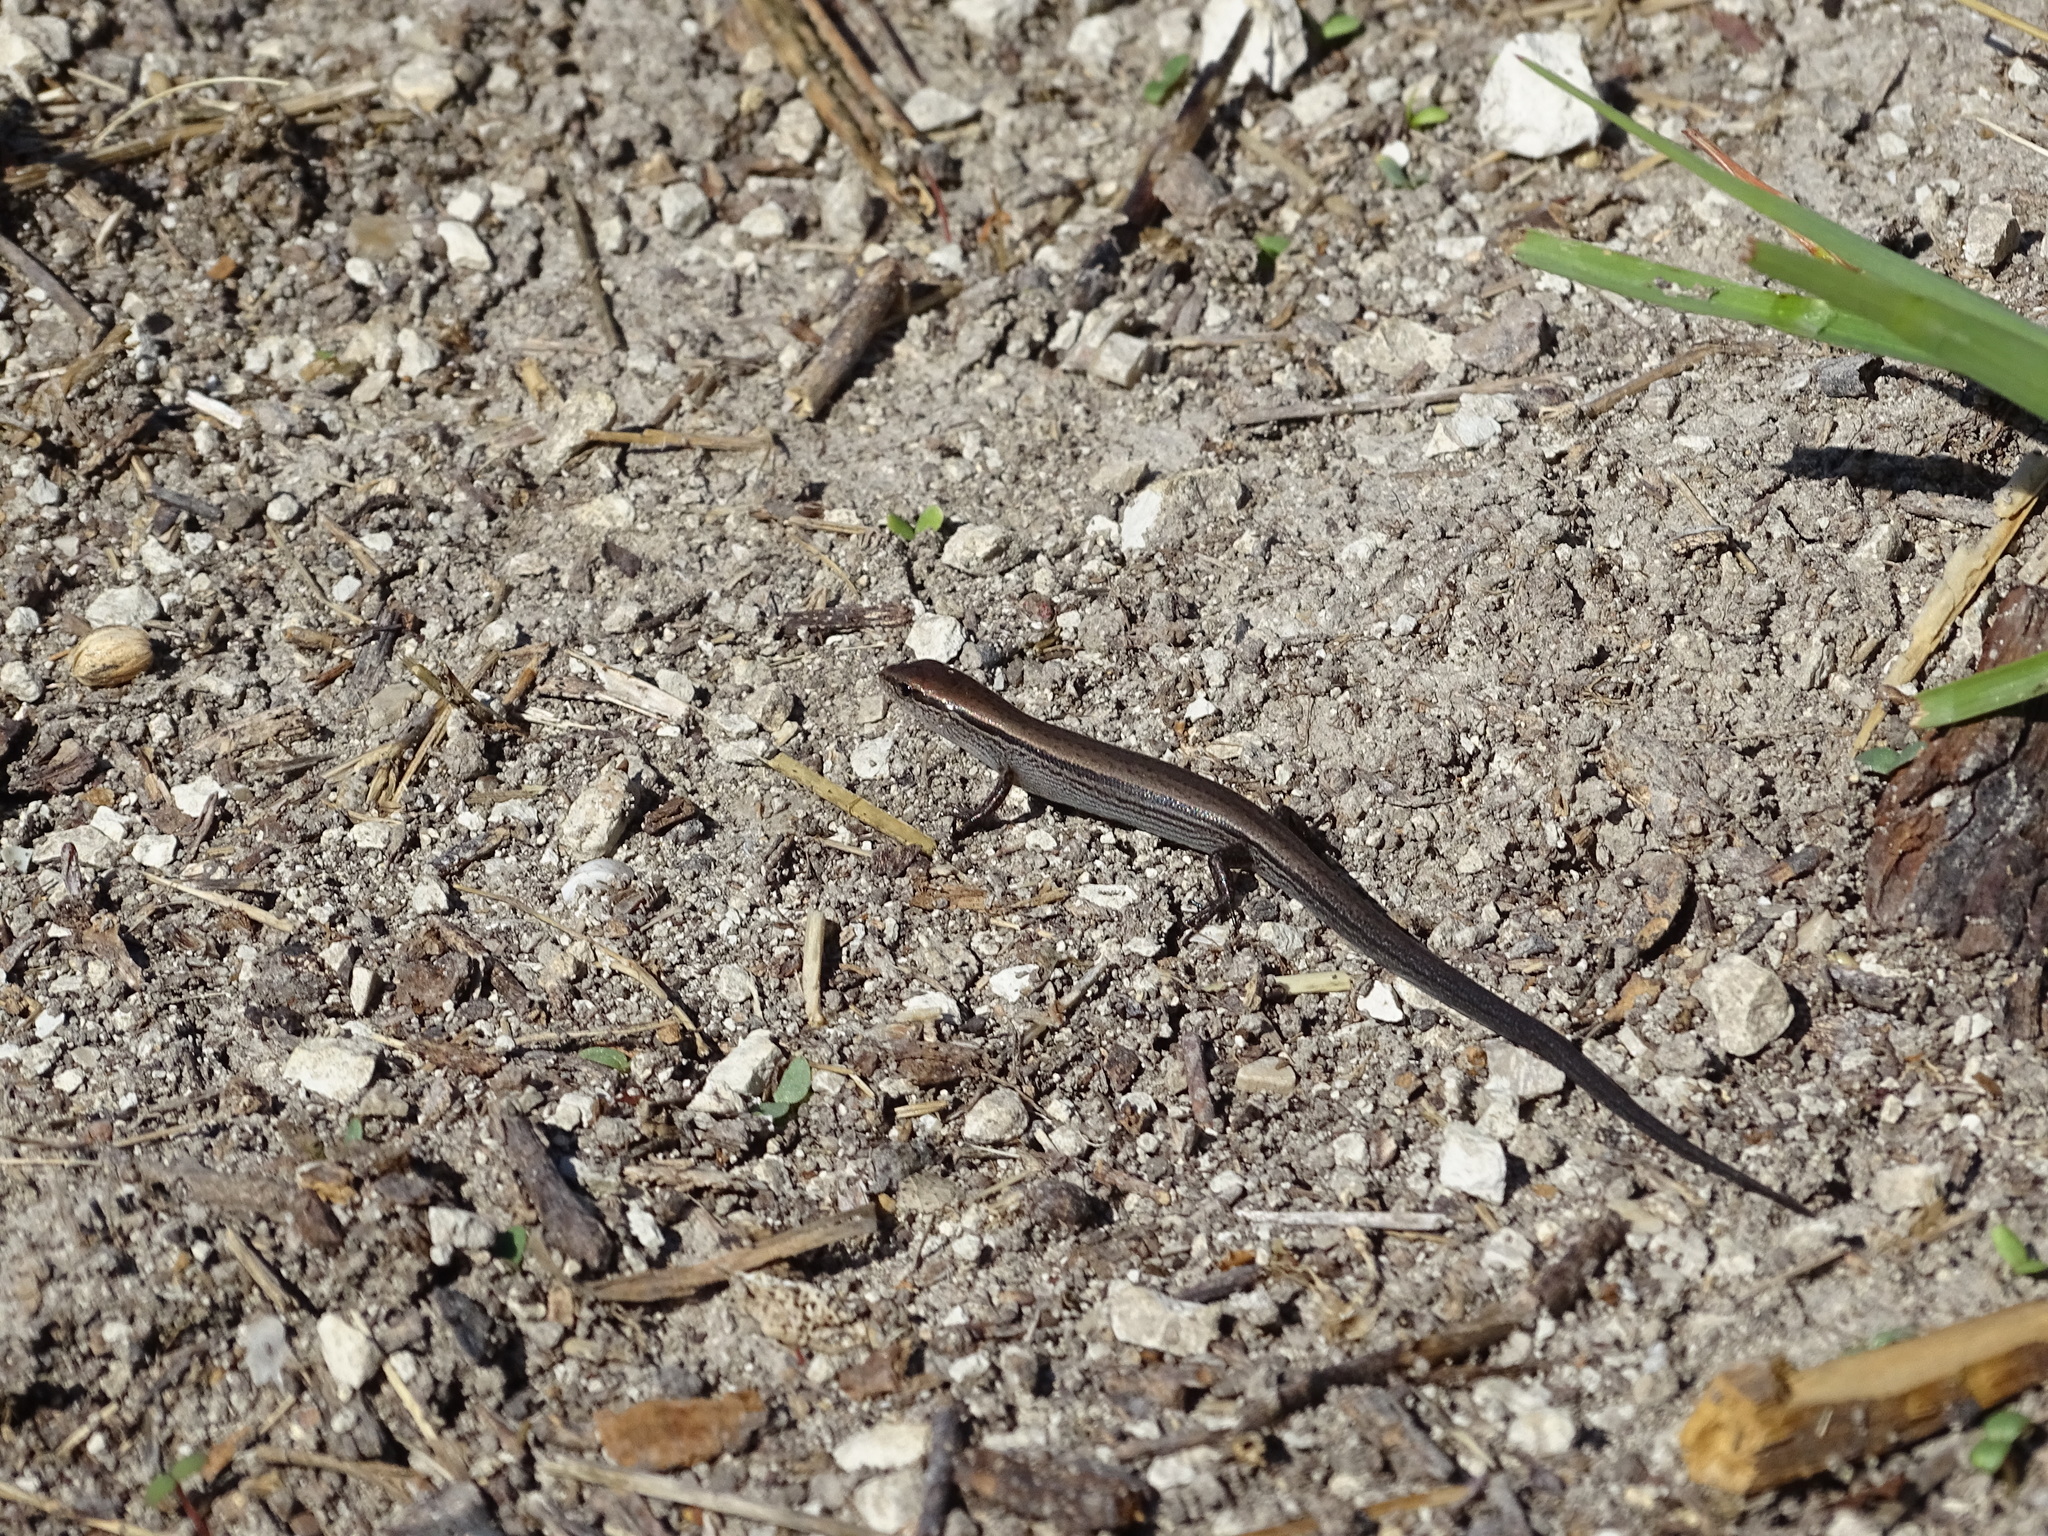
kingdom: Animalia
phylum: Chordata
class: Squamata
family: Scincidae
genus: Scincella
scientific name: Scincella lateralis
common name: Ground skink
